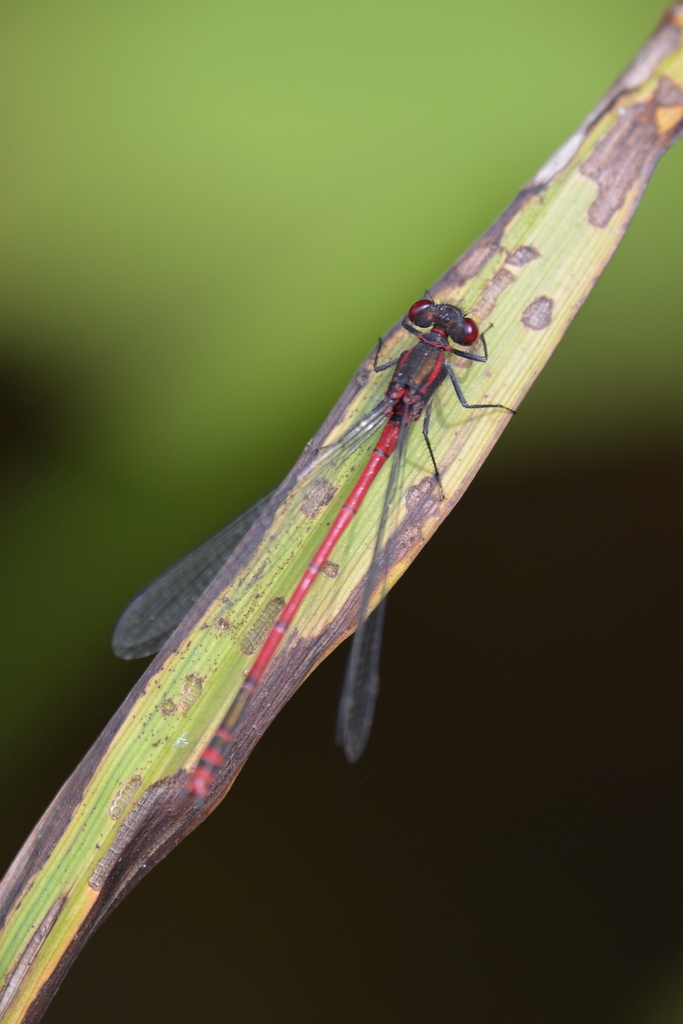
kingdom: Animalia
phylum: Arthropoda
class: Insecta
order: Odonata
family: Coenagrionidae
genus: Pyrrhosoma
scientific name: Pyrrhosoma nymphula
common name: Large red damsel
